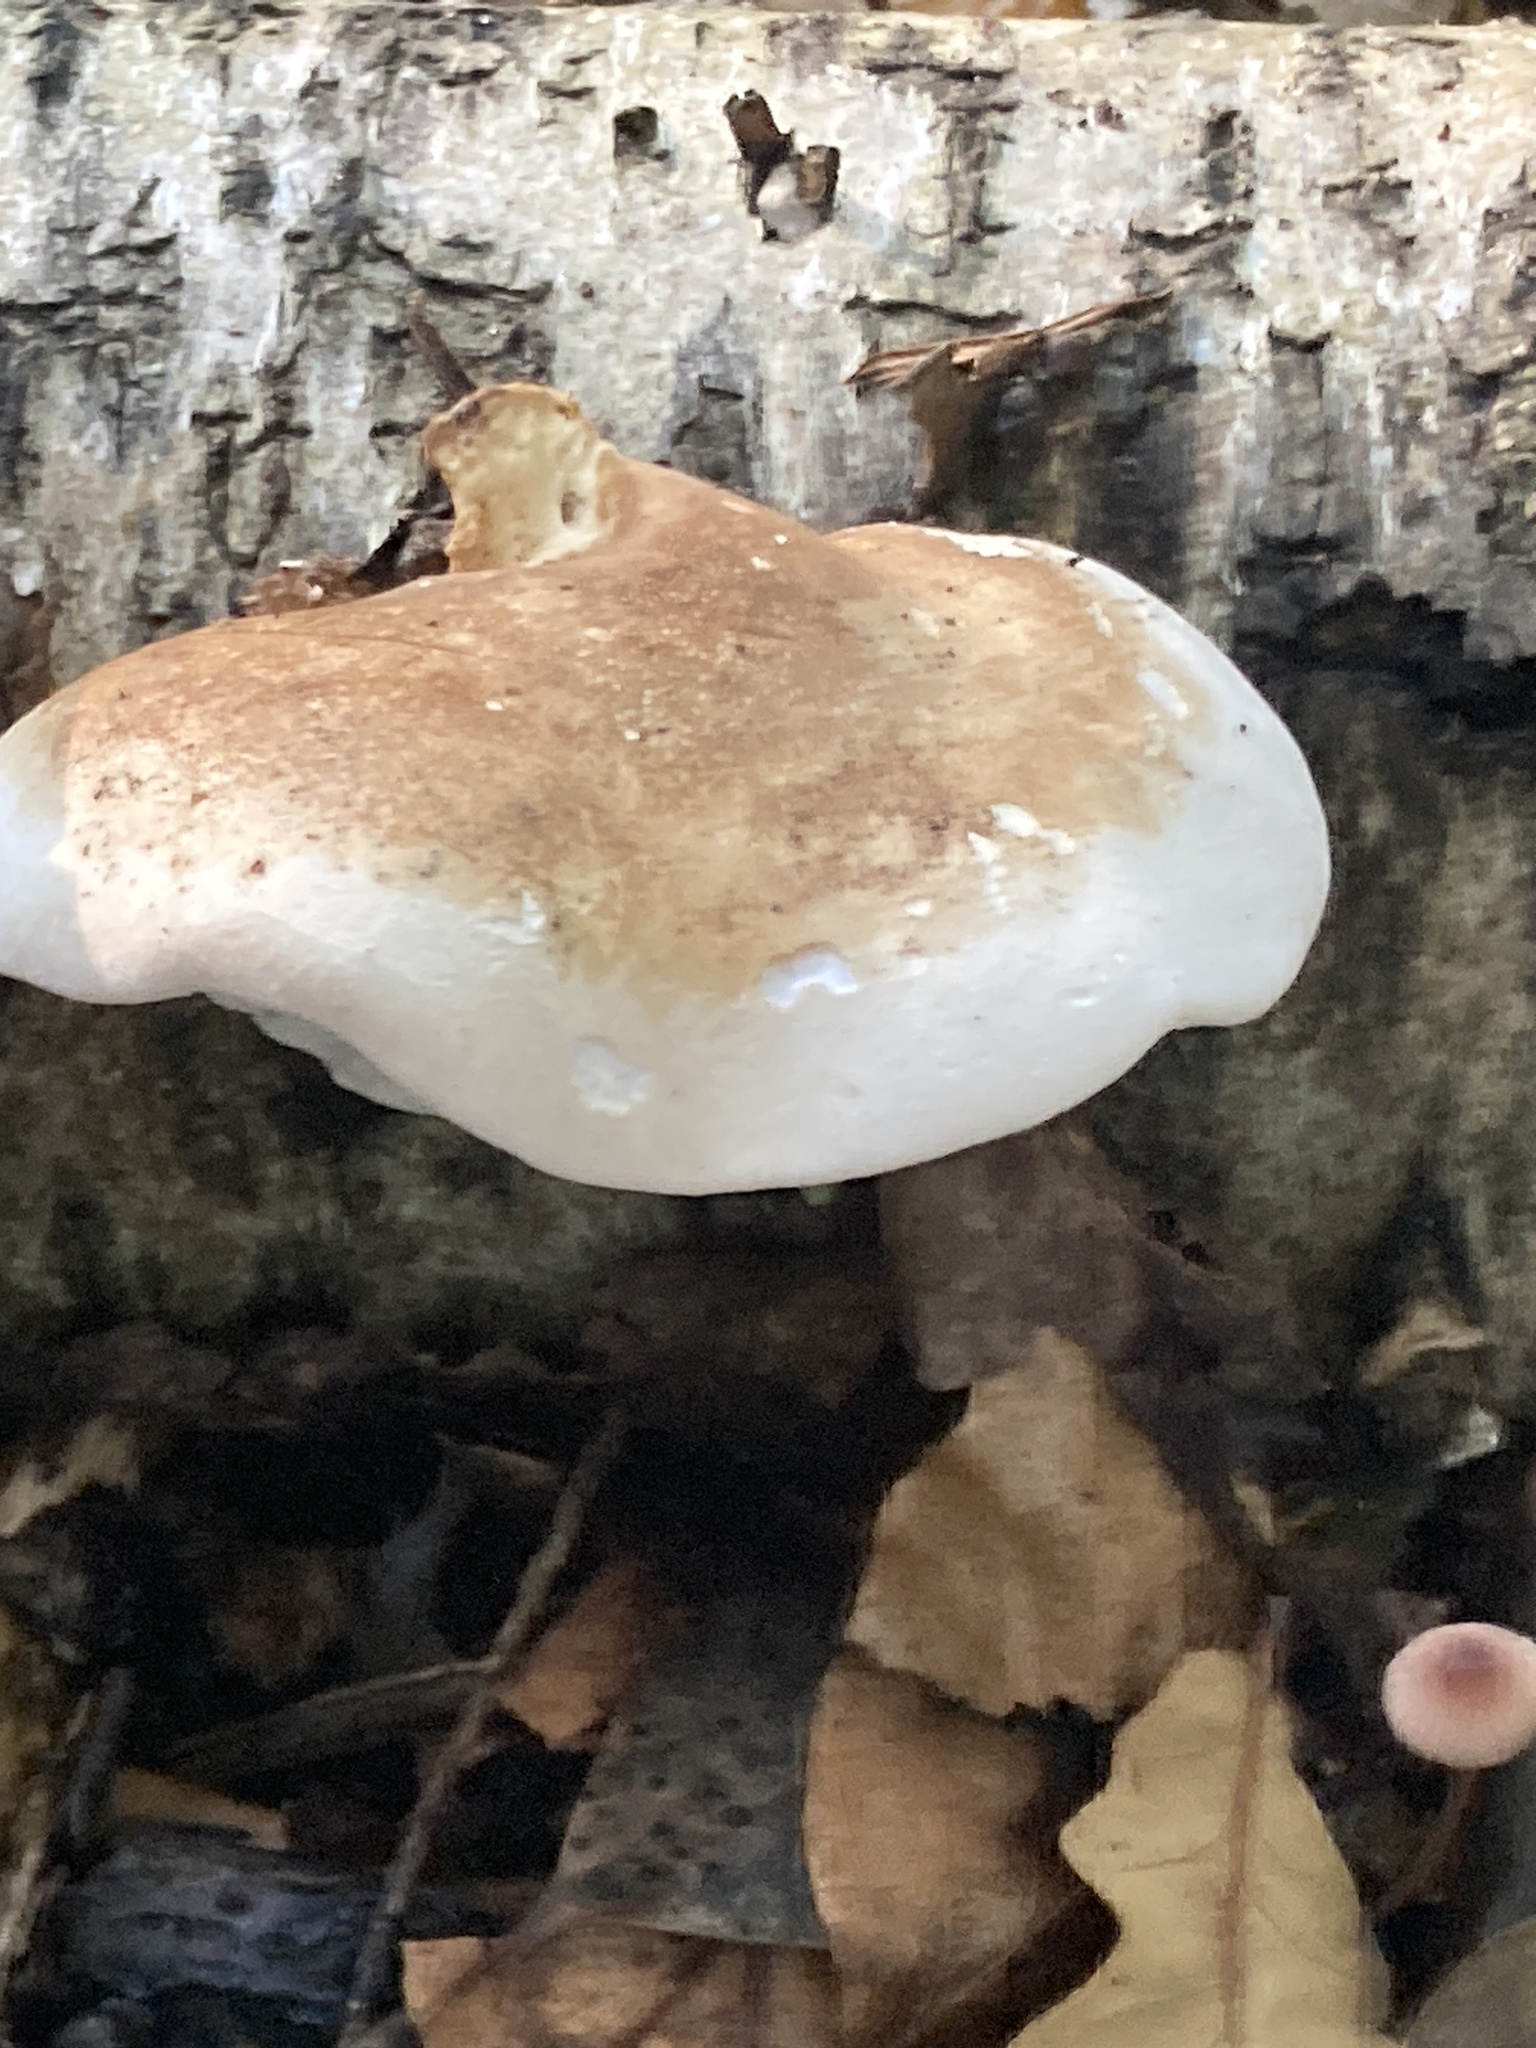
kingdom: Fungi
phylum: Basidiomycota
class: Agaricomycetes
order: Polyporales
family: Fomitopsidaceae
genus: Fomitopsis
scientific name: Fomitopsis betulina
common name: Birch polypore
